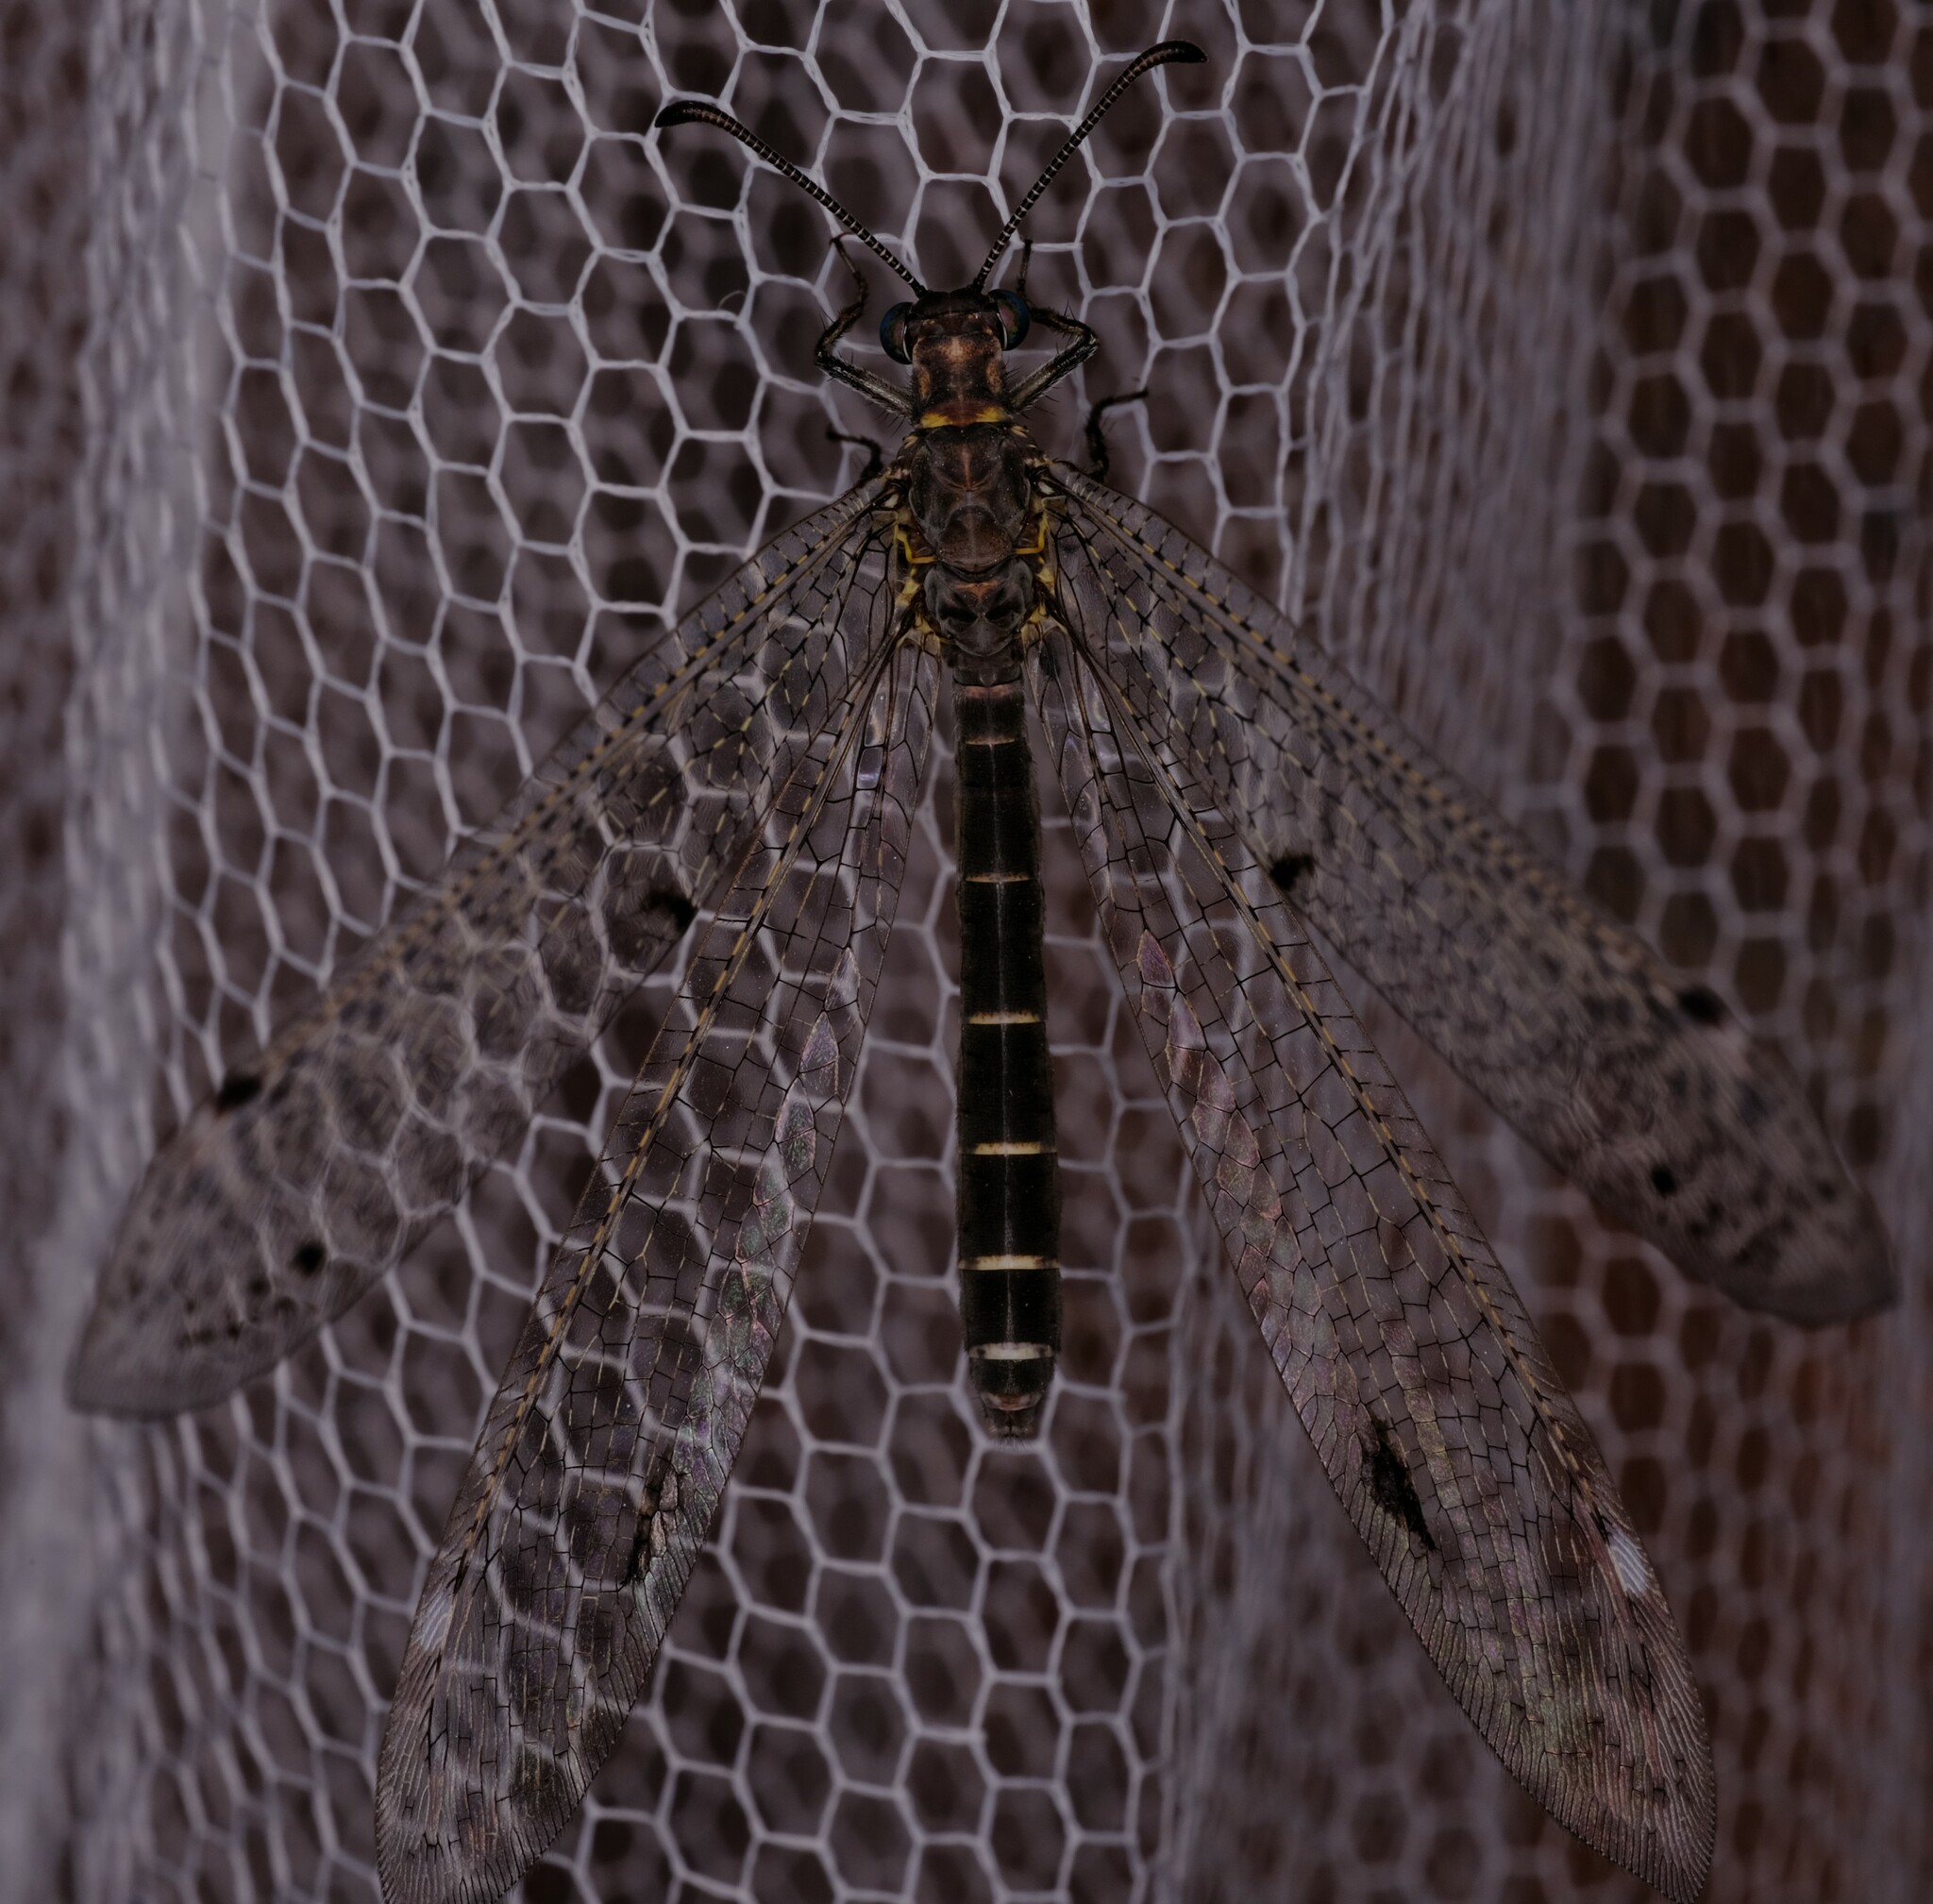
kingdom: Animalia
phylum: Arthropoda
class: Insecta
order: Neuroptera
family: Myrmeleontidae
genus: Bandidus
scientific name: Bandidus vafer
